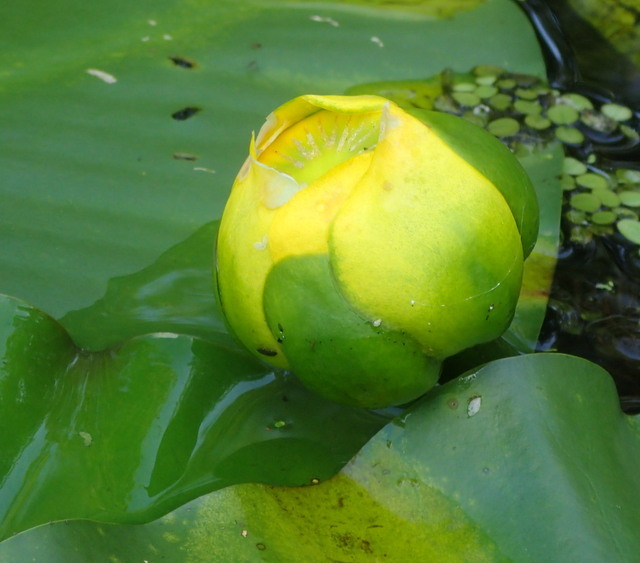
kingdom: Plantae
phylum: Tracheophyta
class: Magnoliopsida
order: Nymphaeales
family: Nymphaeaceae
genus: Nuphar
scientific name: Nuphar advena
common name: Spatter-dock
